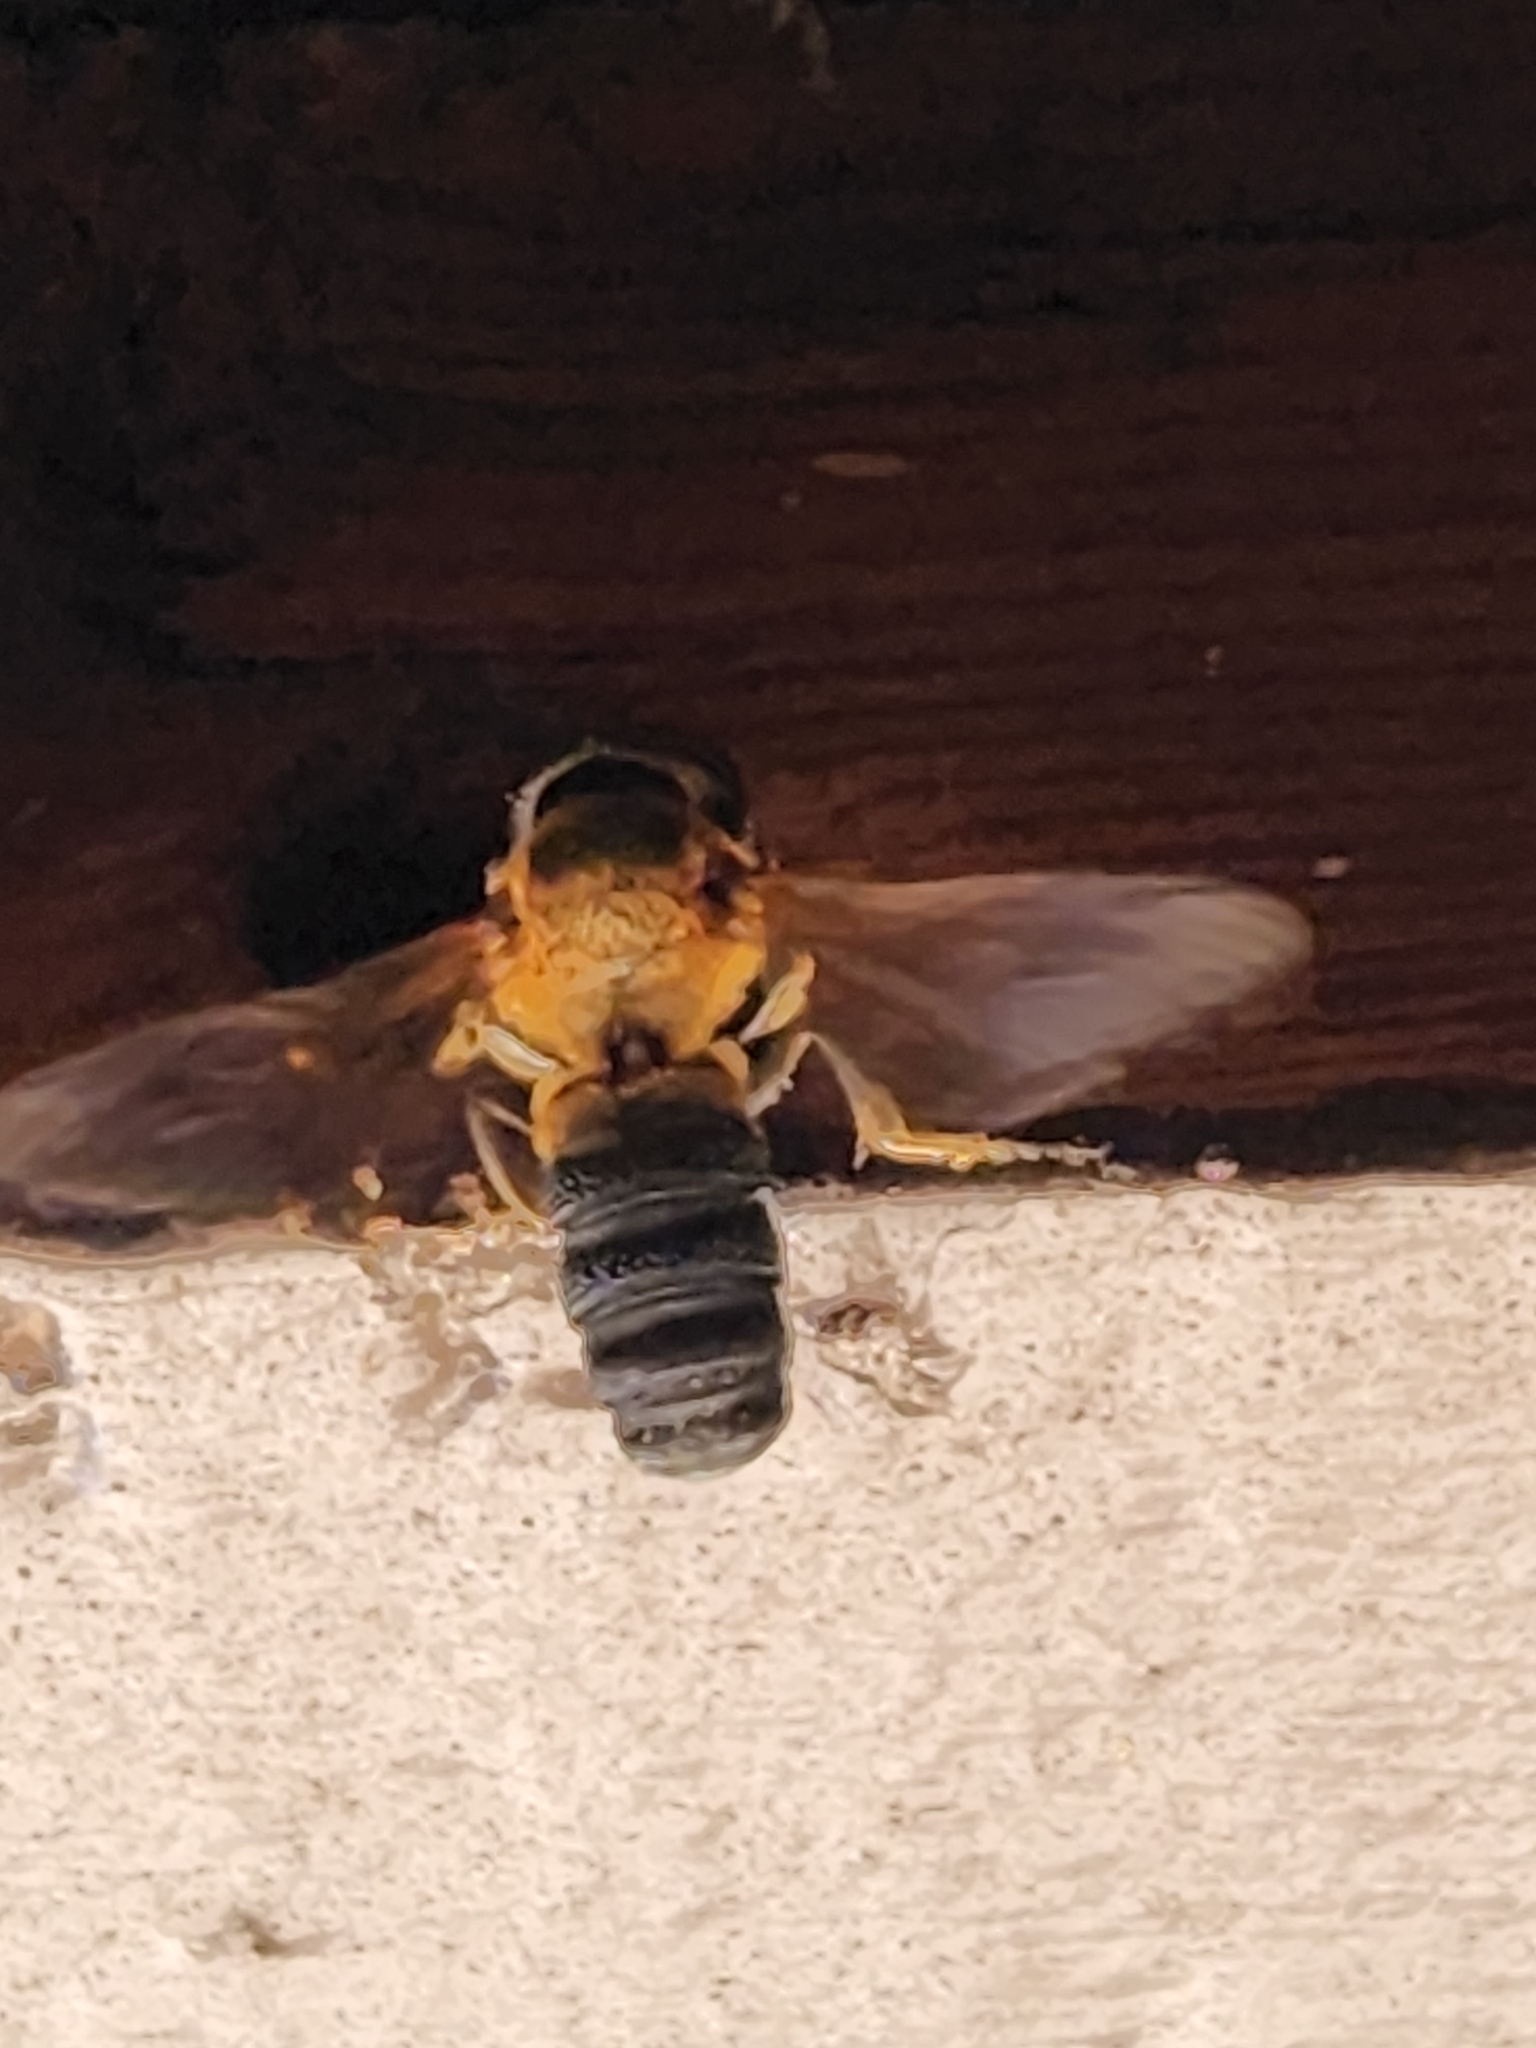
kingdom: Animalia
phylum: Arthropoda
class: Insecta
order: Hymenoptera
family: Megachilidae
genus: Megachile
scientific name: Megachile sculpturalis
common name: Sculptured resin bee
